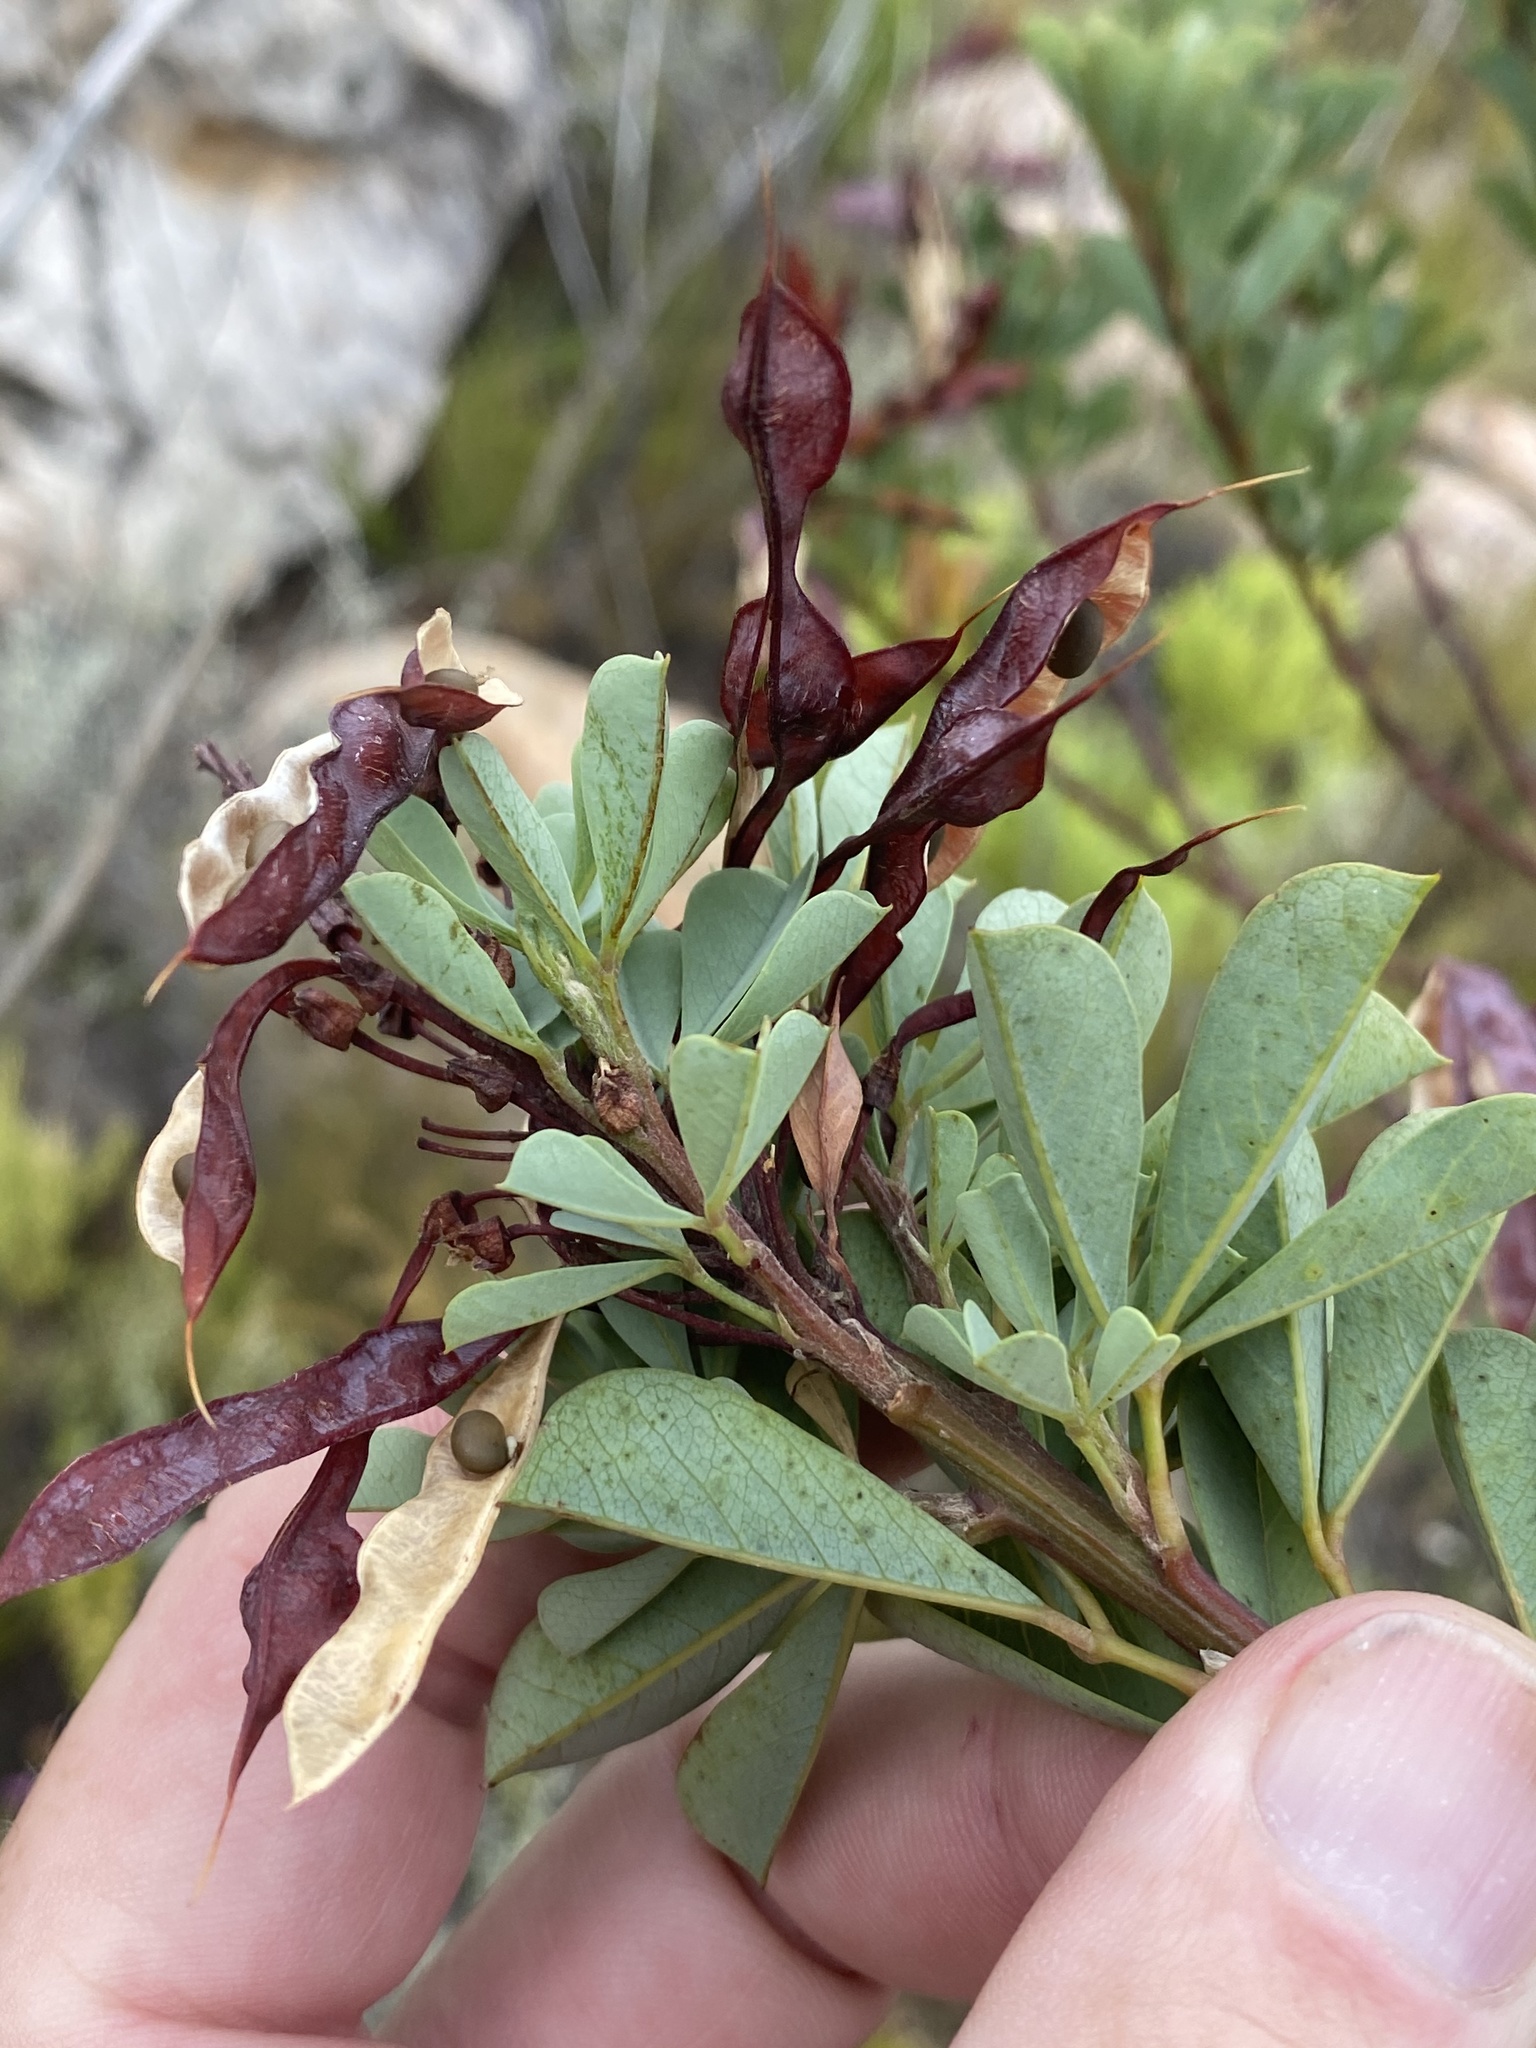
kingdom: Plantae
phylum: Tracheophyta
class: Magnoliopsida
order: Fabales
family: Fabaceae
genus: Hypocalyptus
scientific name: Hypocalyptus sophoroides
